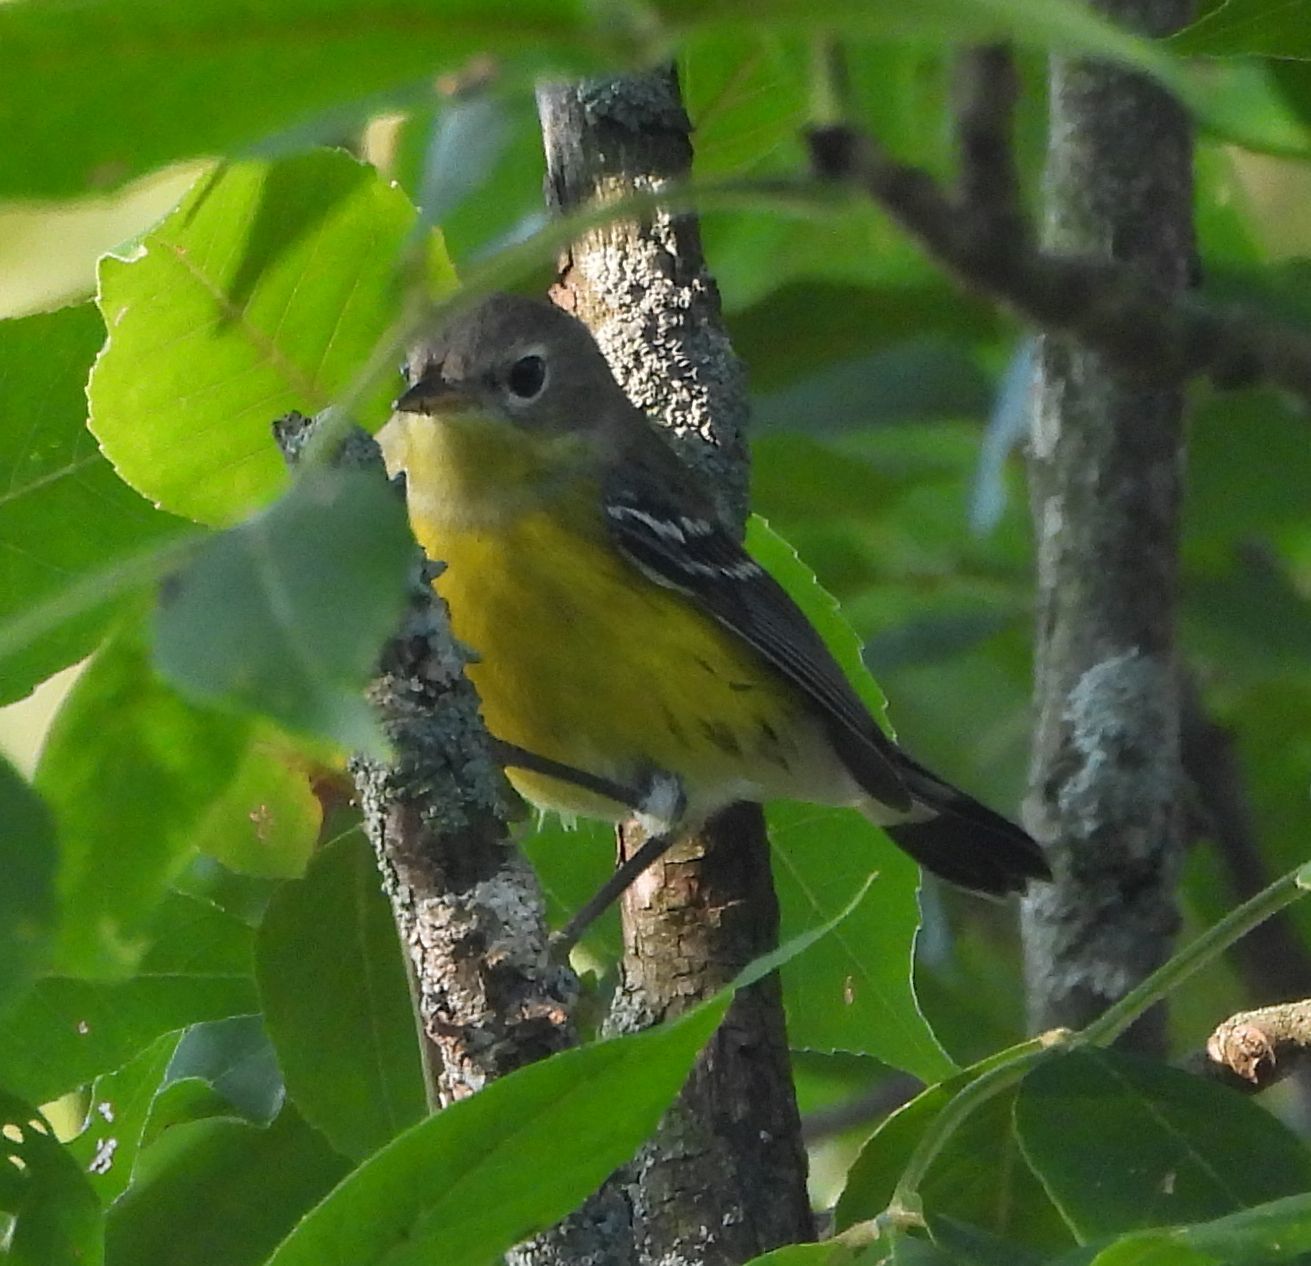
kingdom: Animalia
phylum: Chordata
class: Aves
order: Passeriformes
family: Parulidae
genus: Setophaga
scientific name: Setophaga magnolia
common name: Magnolia warbler
